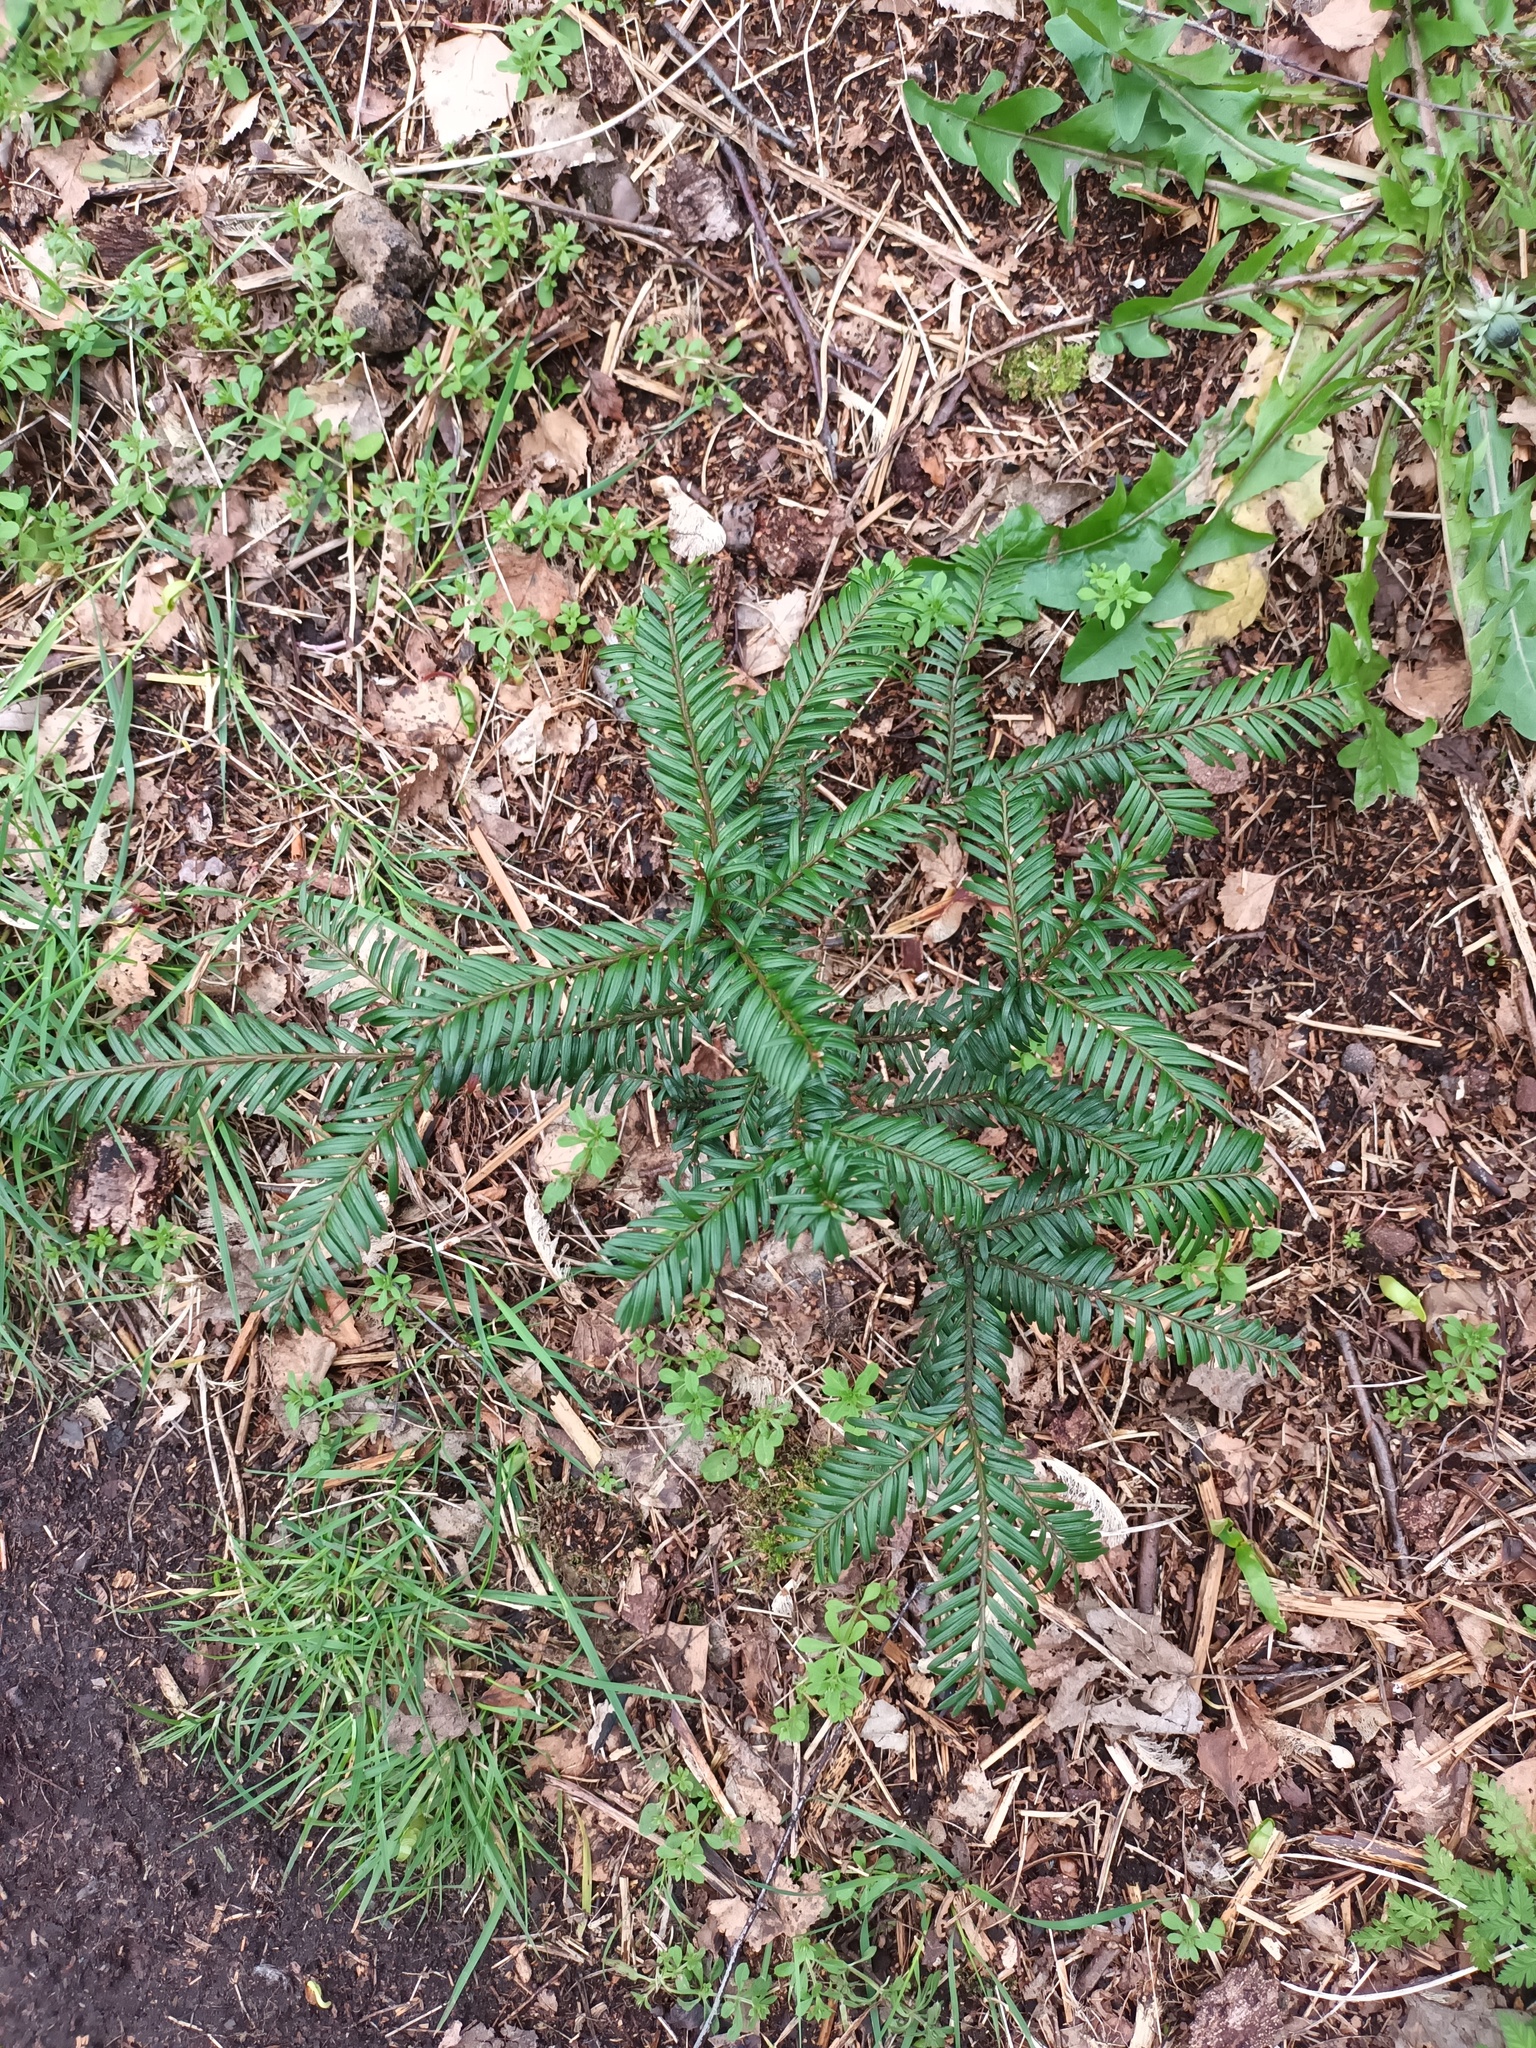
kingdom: Plantae
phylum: Tracheophyta
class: Pinopsida
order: Pinales
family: Taxaceae
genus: Taxus
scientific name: Taxus baccata
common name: Yew
